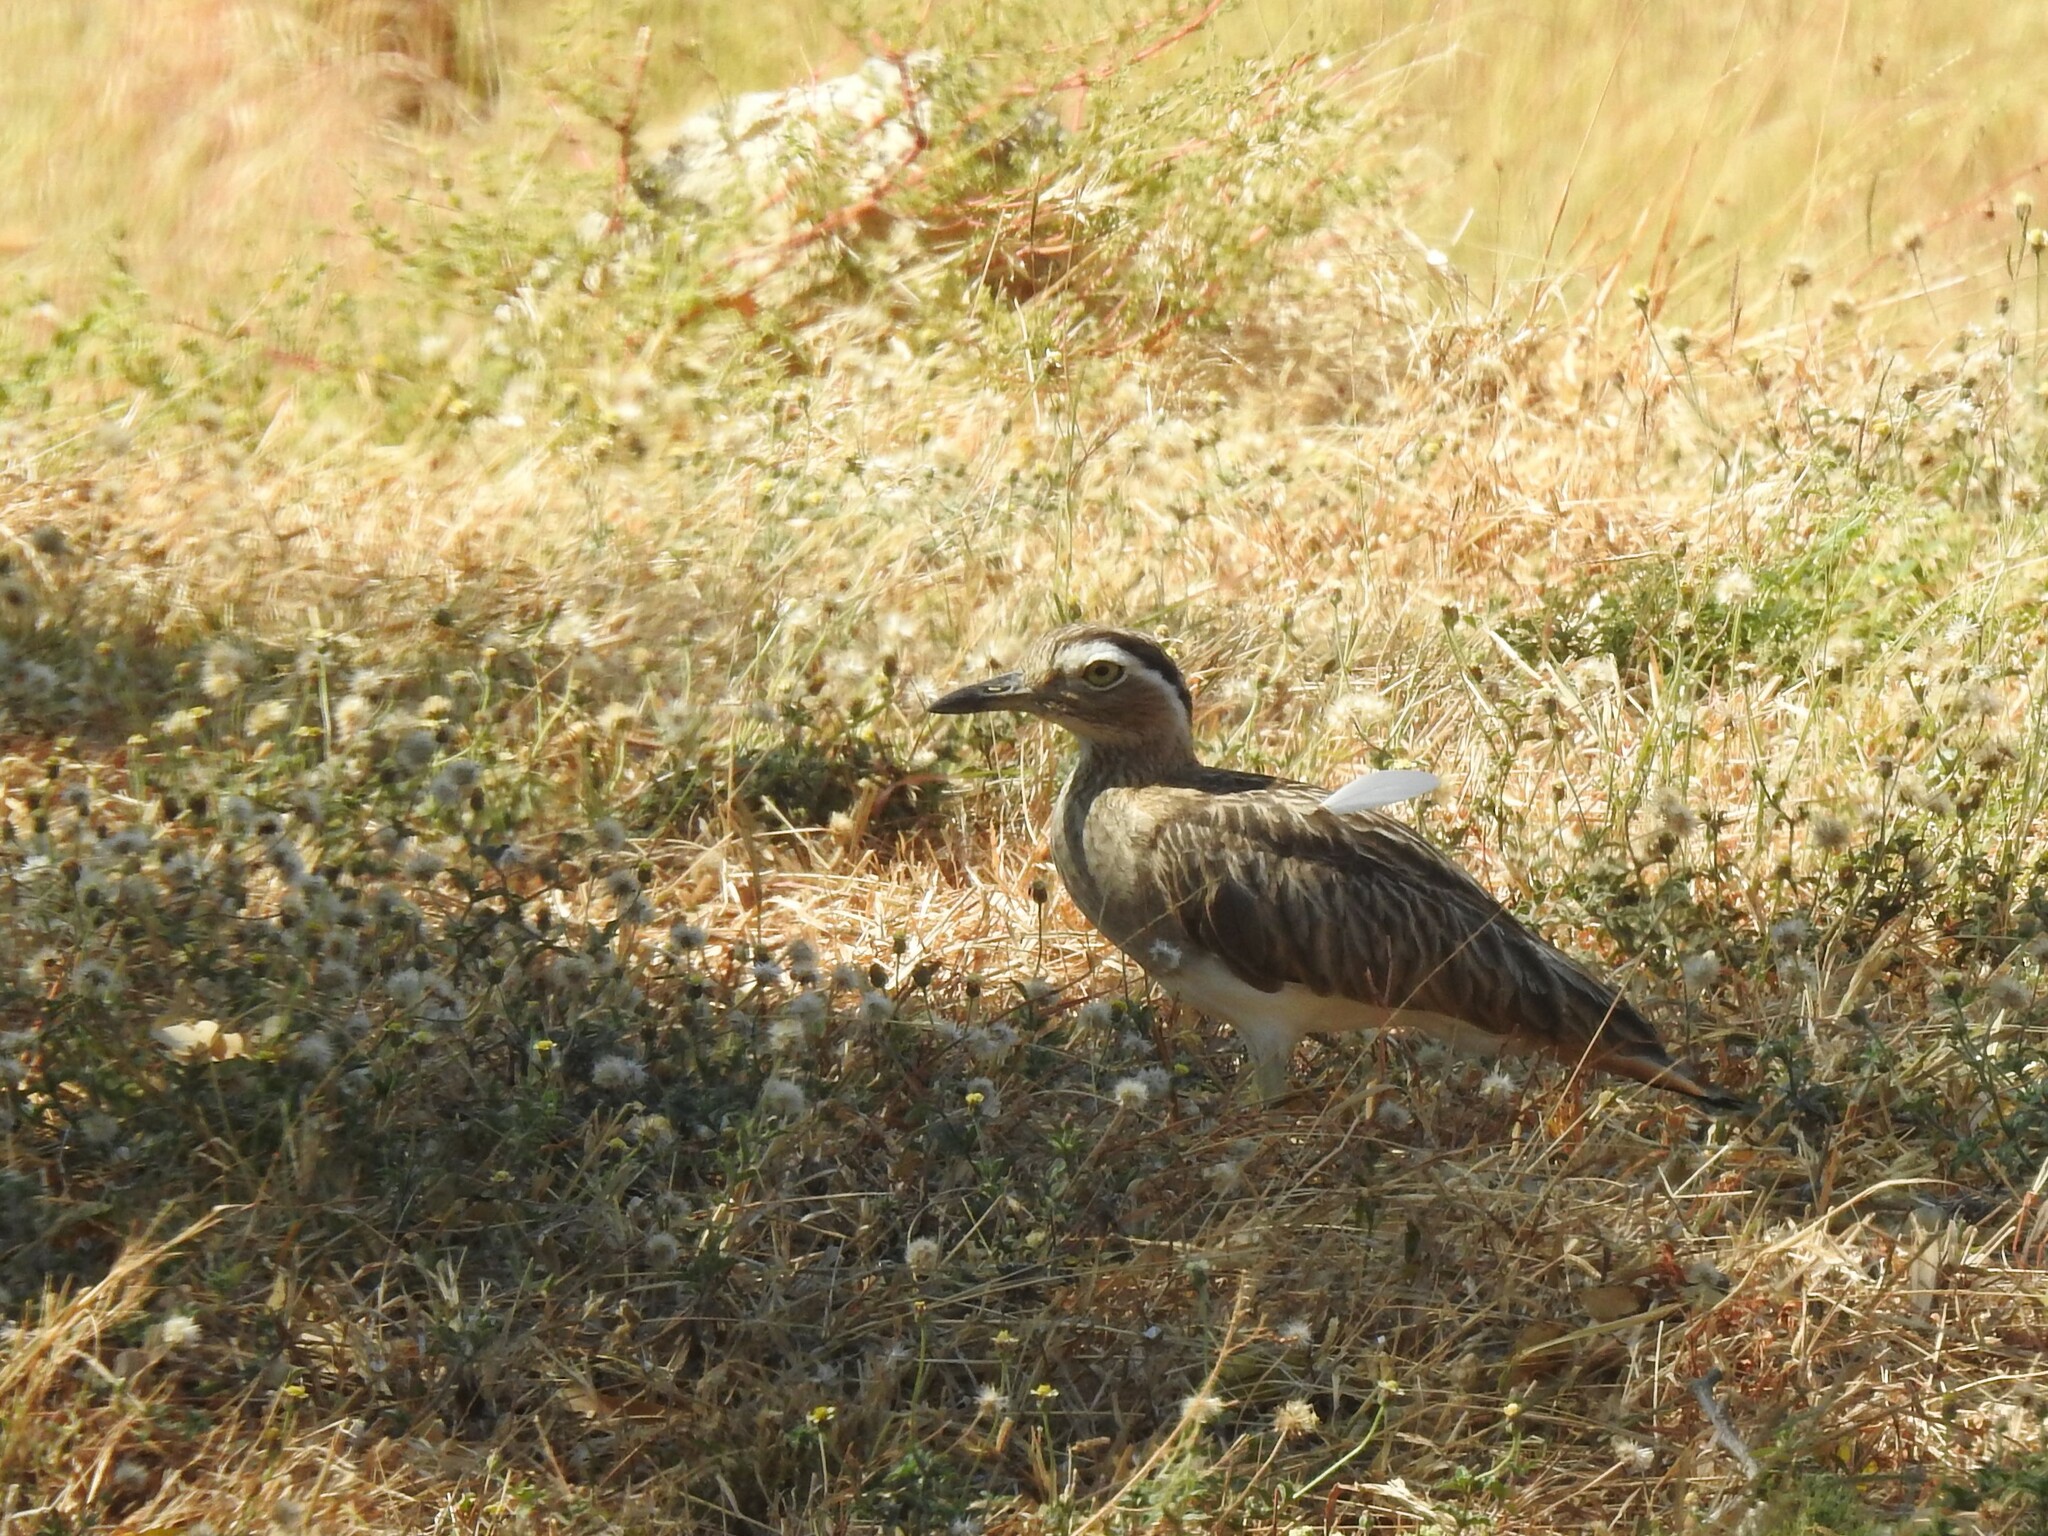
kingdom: Animalia
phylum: Chordata
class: Aves
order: Charadriiformes
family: Burhinidae
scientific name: Burhinidae
